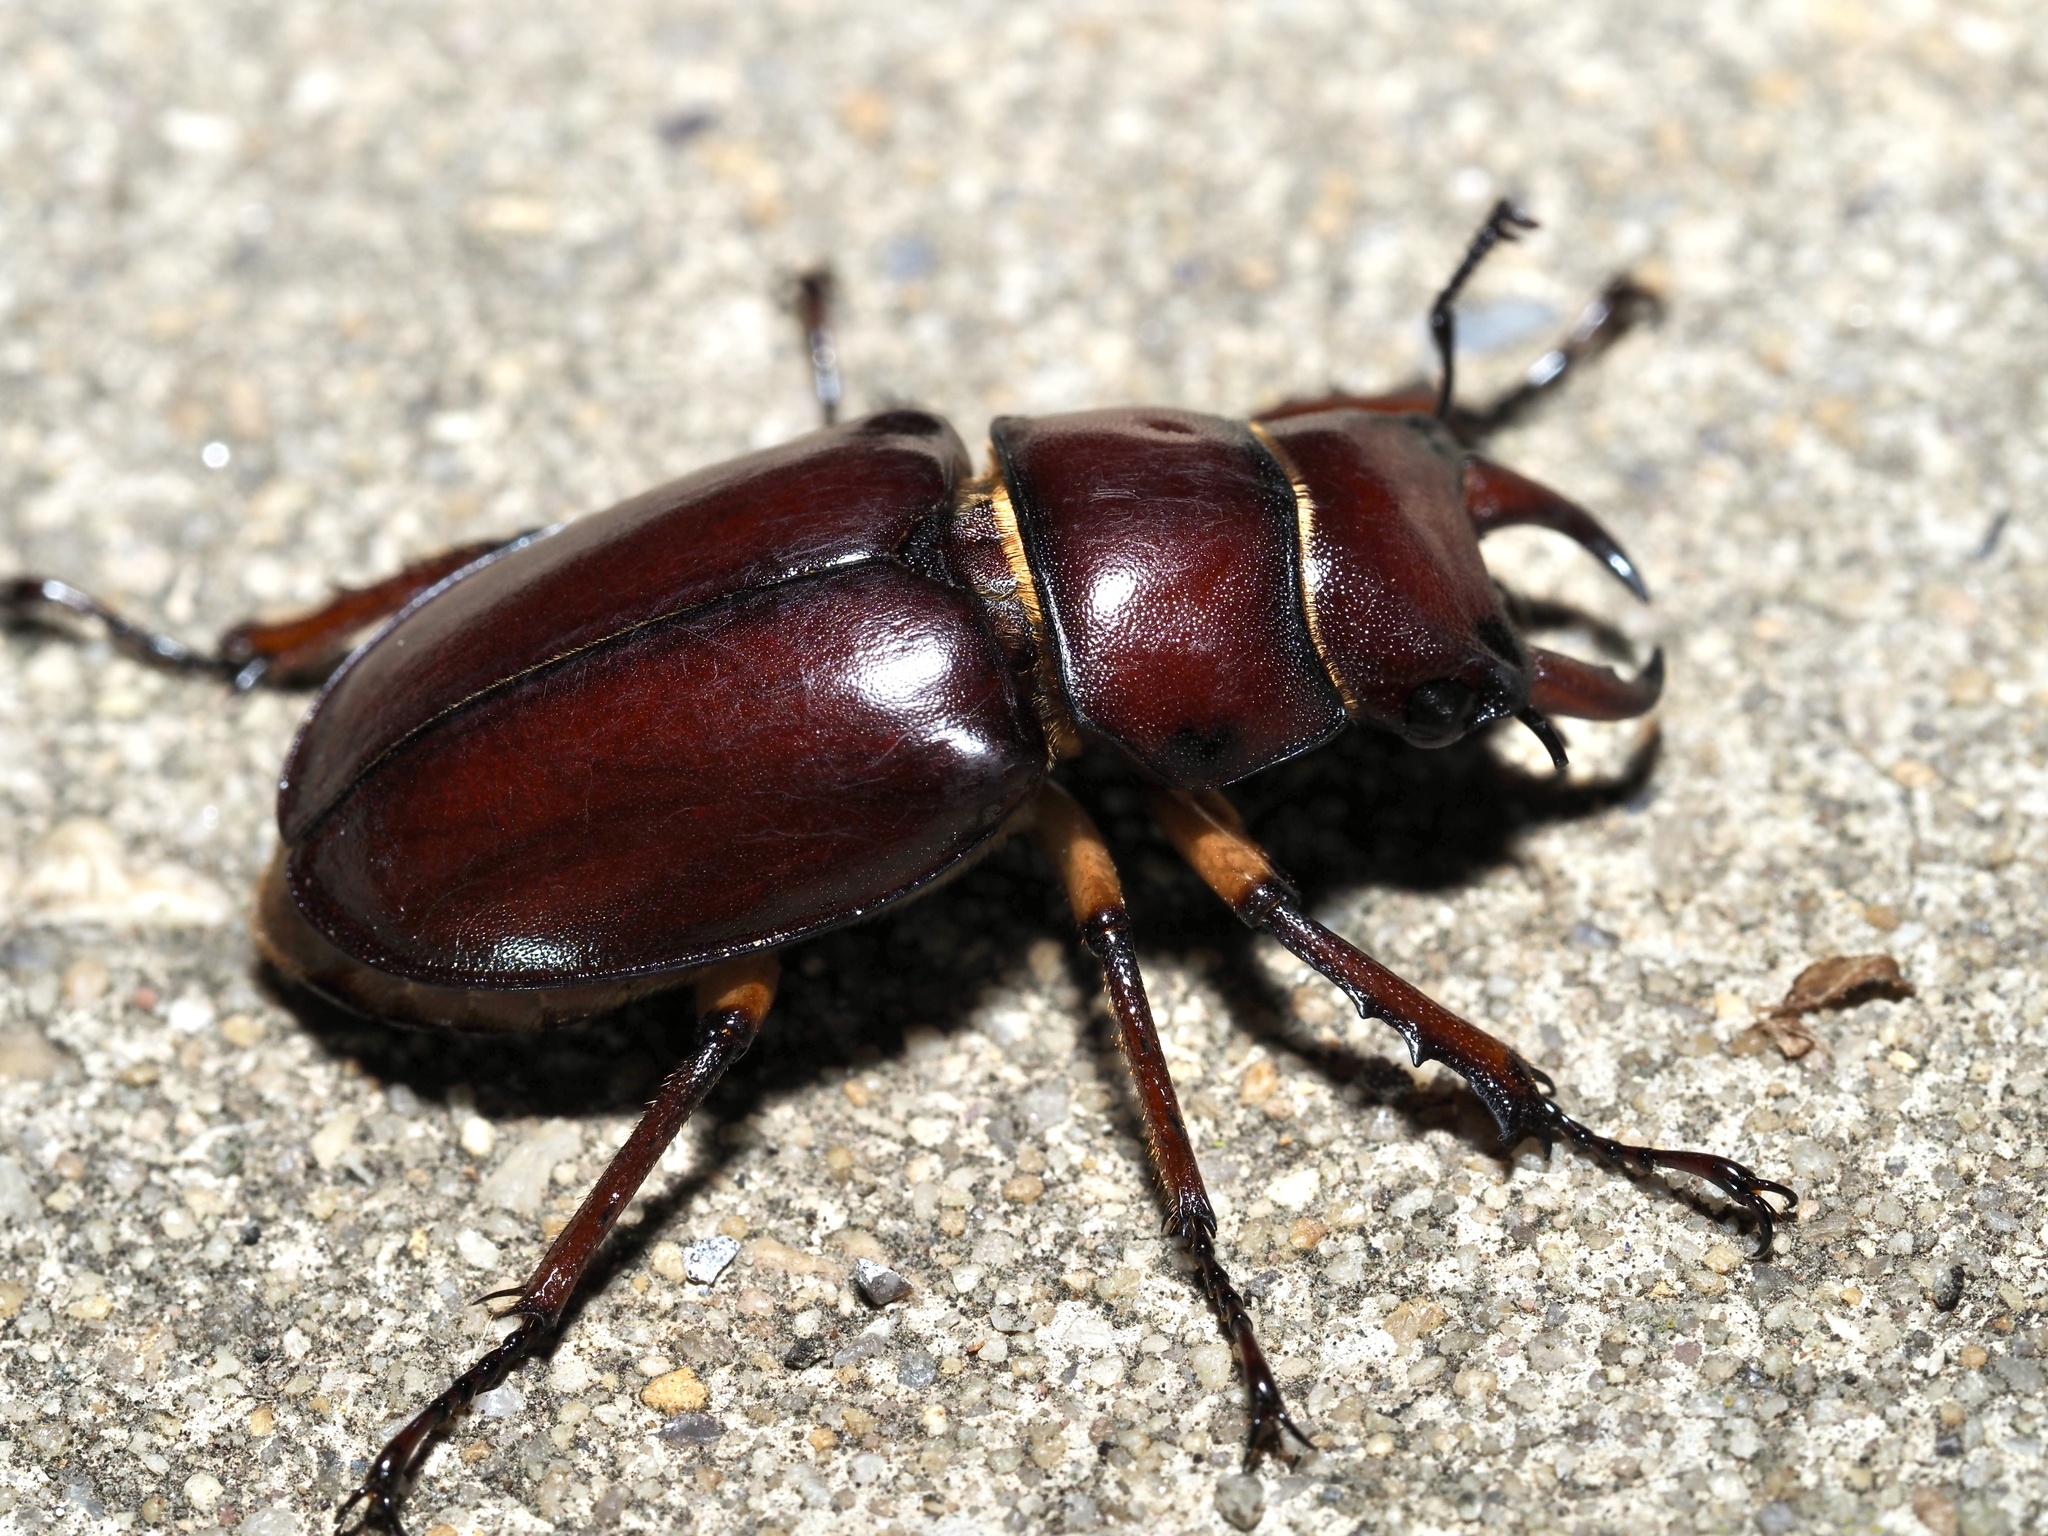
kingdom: Animalia
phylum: Arthropoda
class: Insecta
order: Coleoptera
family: Lucanidae
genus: Lucanus
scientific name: Lucanus capreolus
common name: Stag beetle
